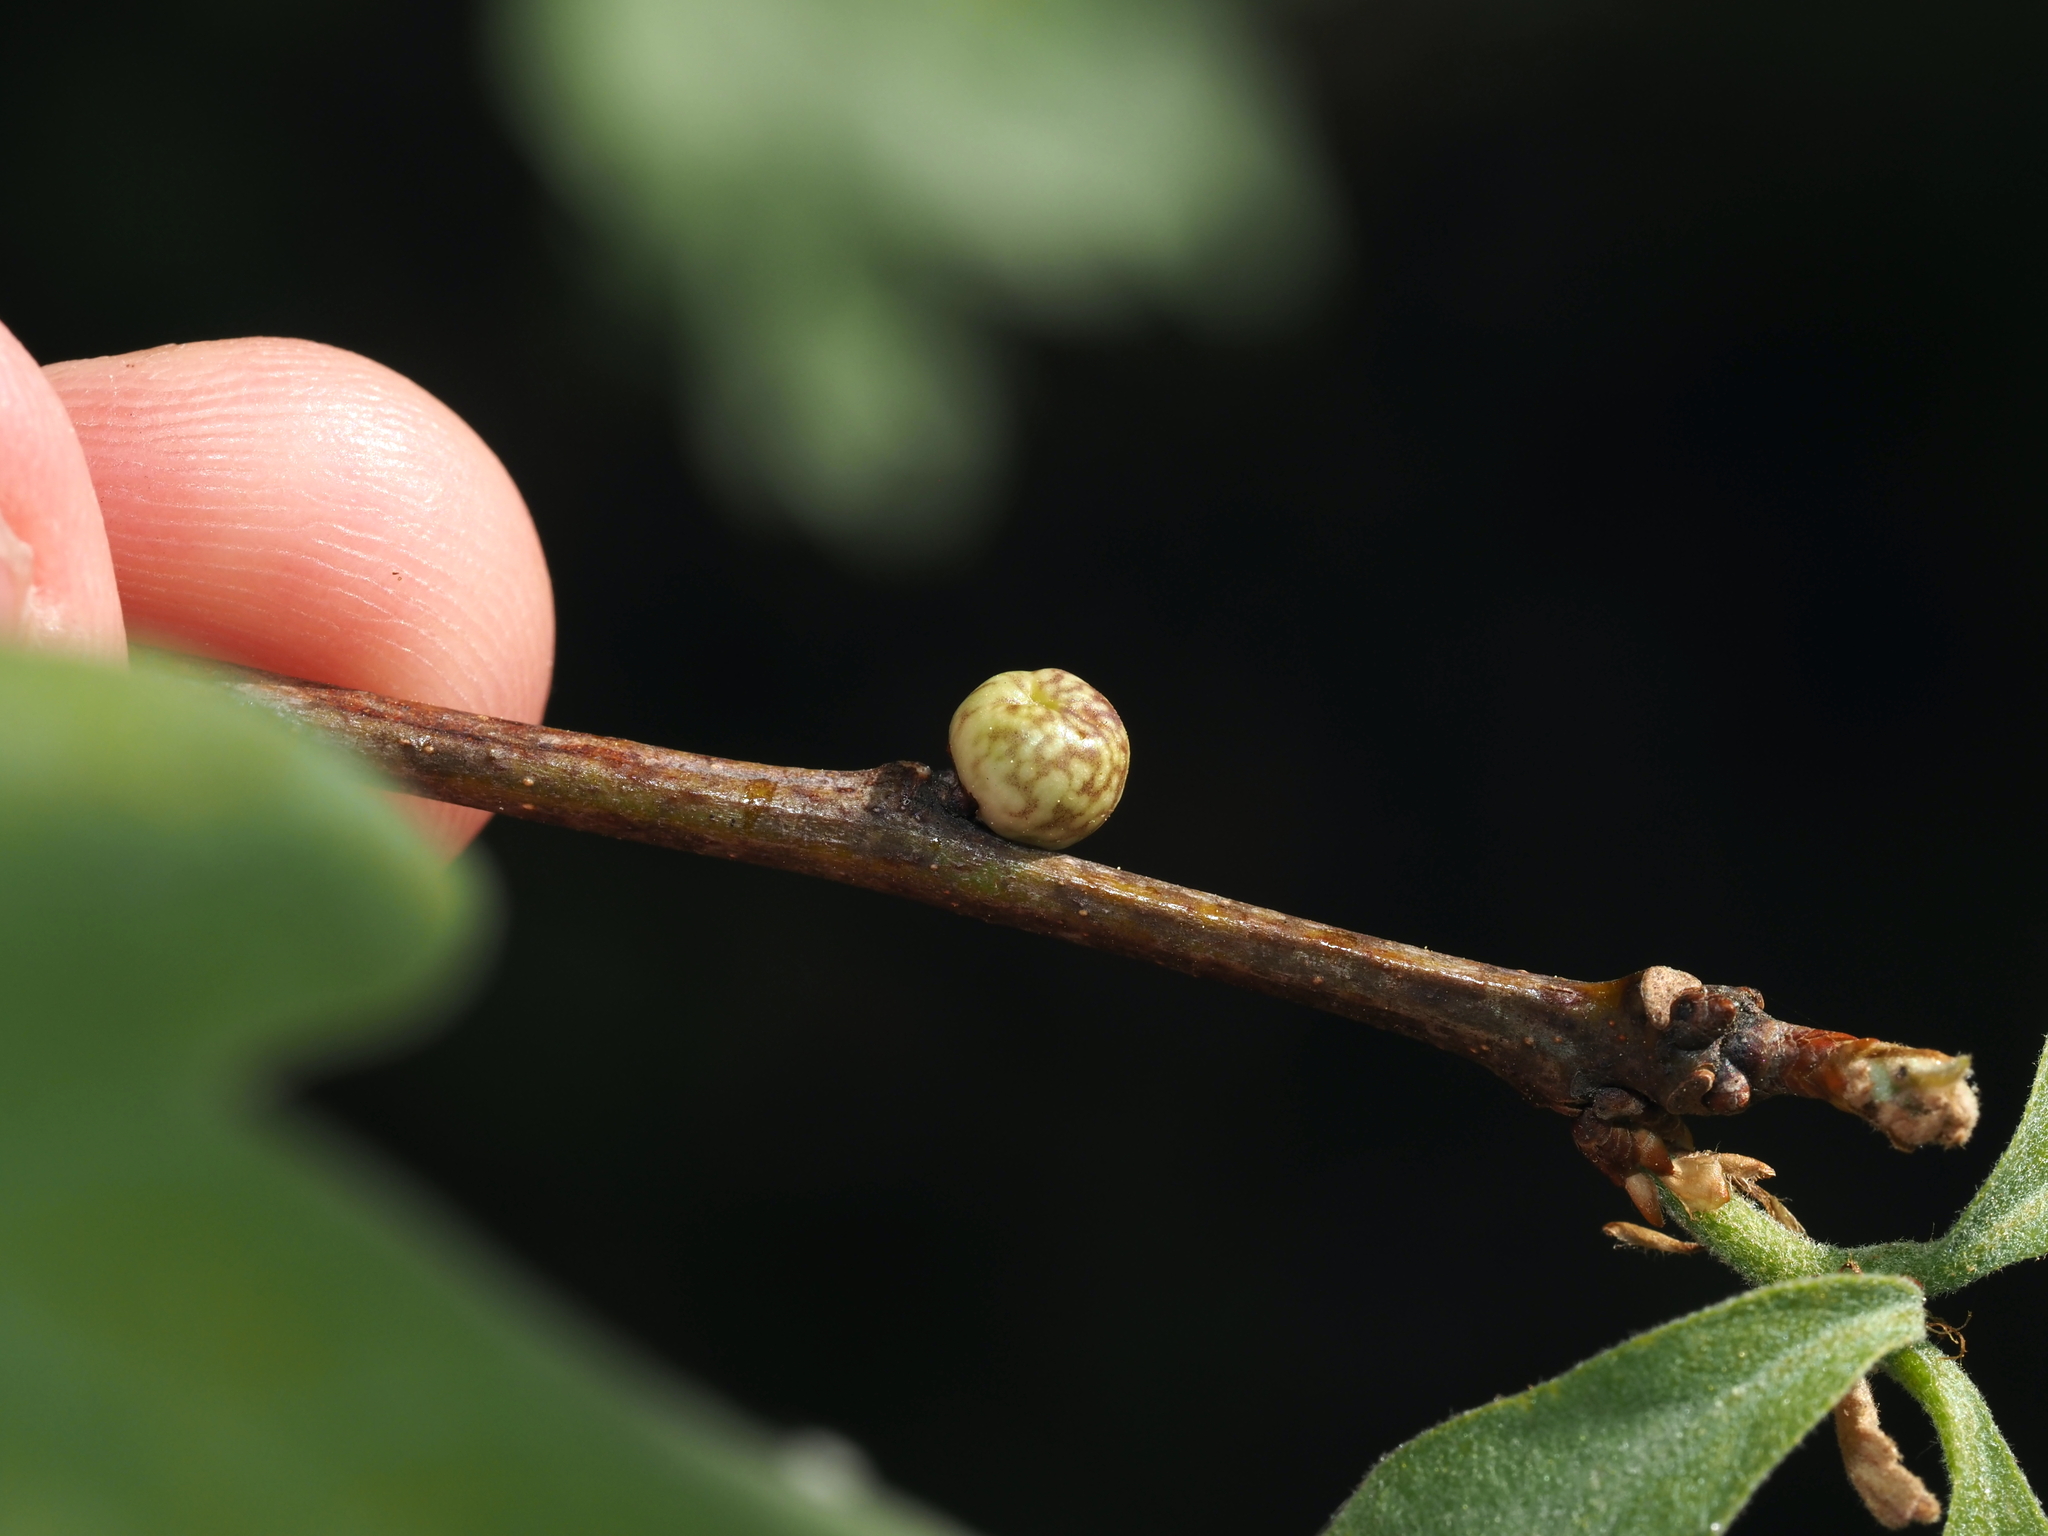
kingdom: Animalia
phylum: Arthropoda
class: Insecta
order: Hymenoptera
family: Cynipidae
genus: Andricus
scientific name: Andricus
